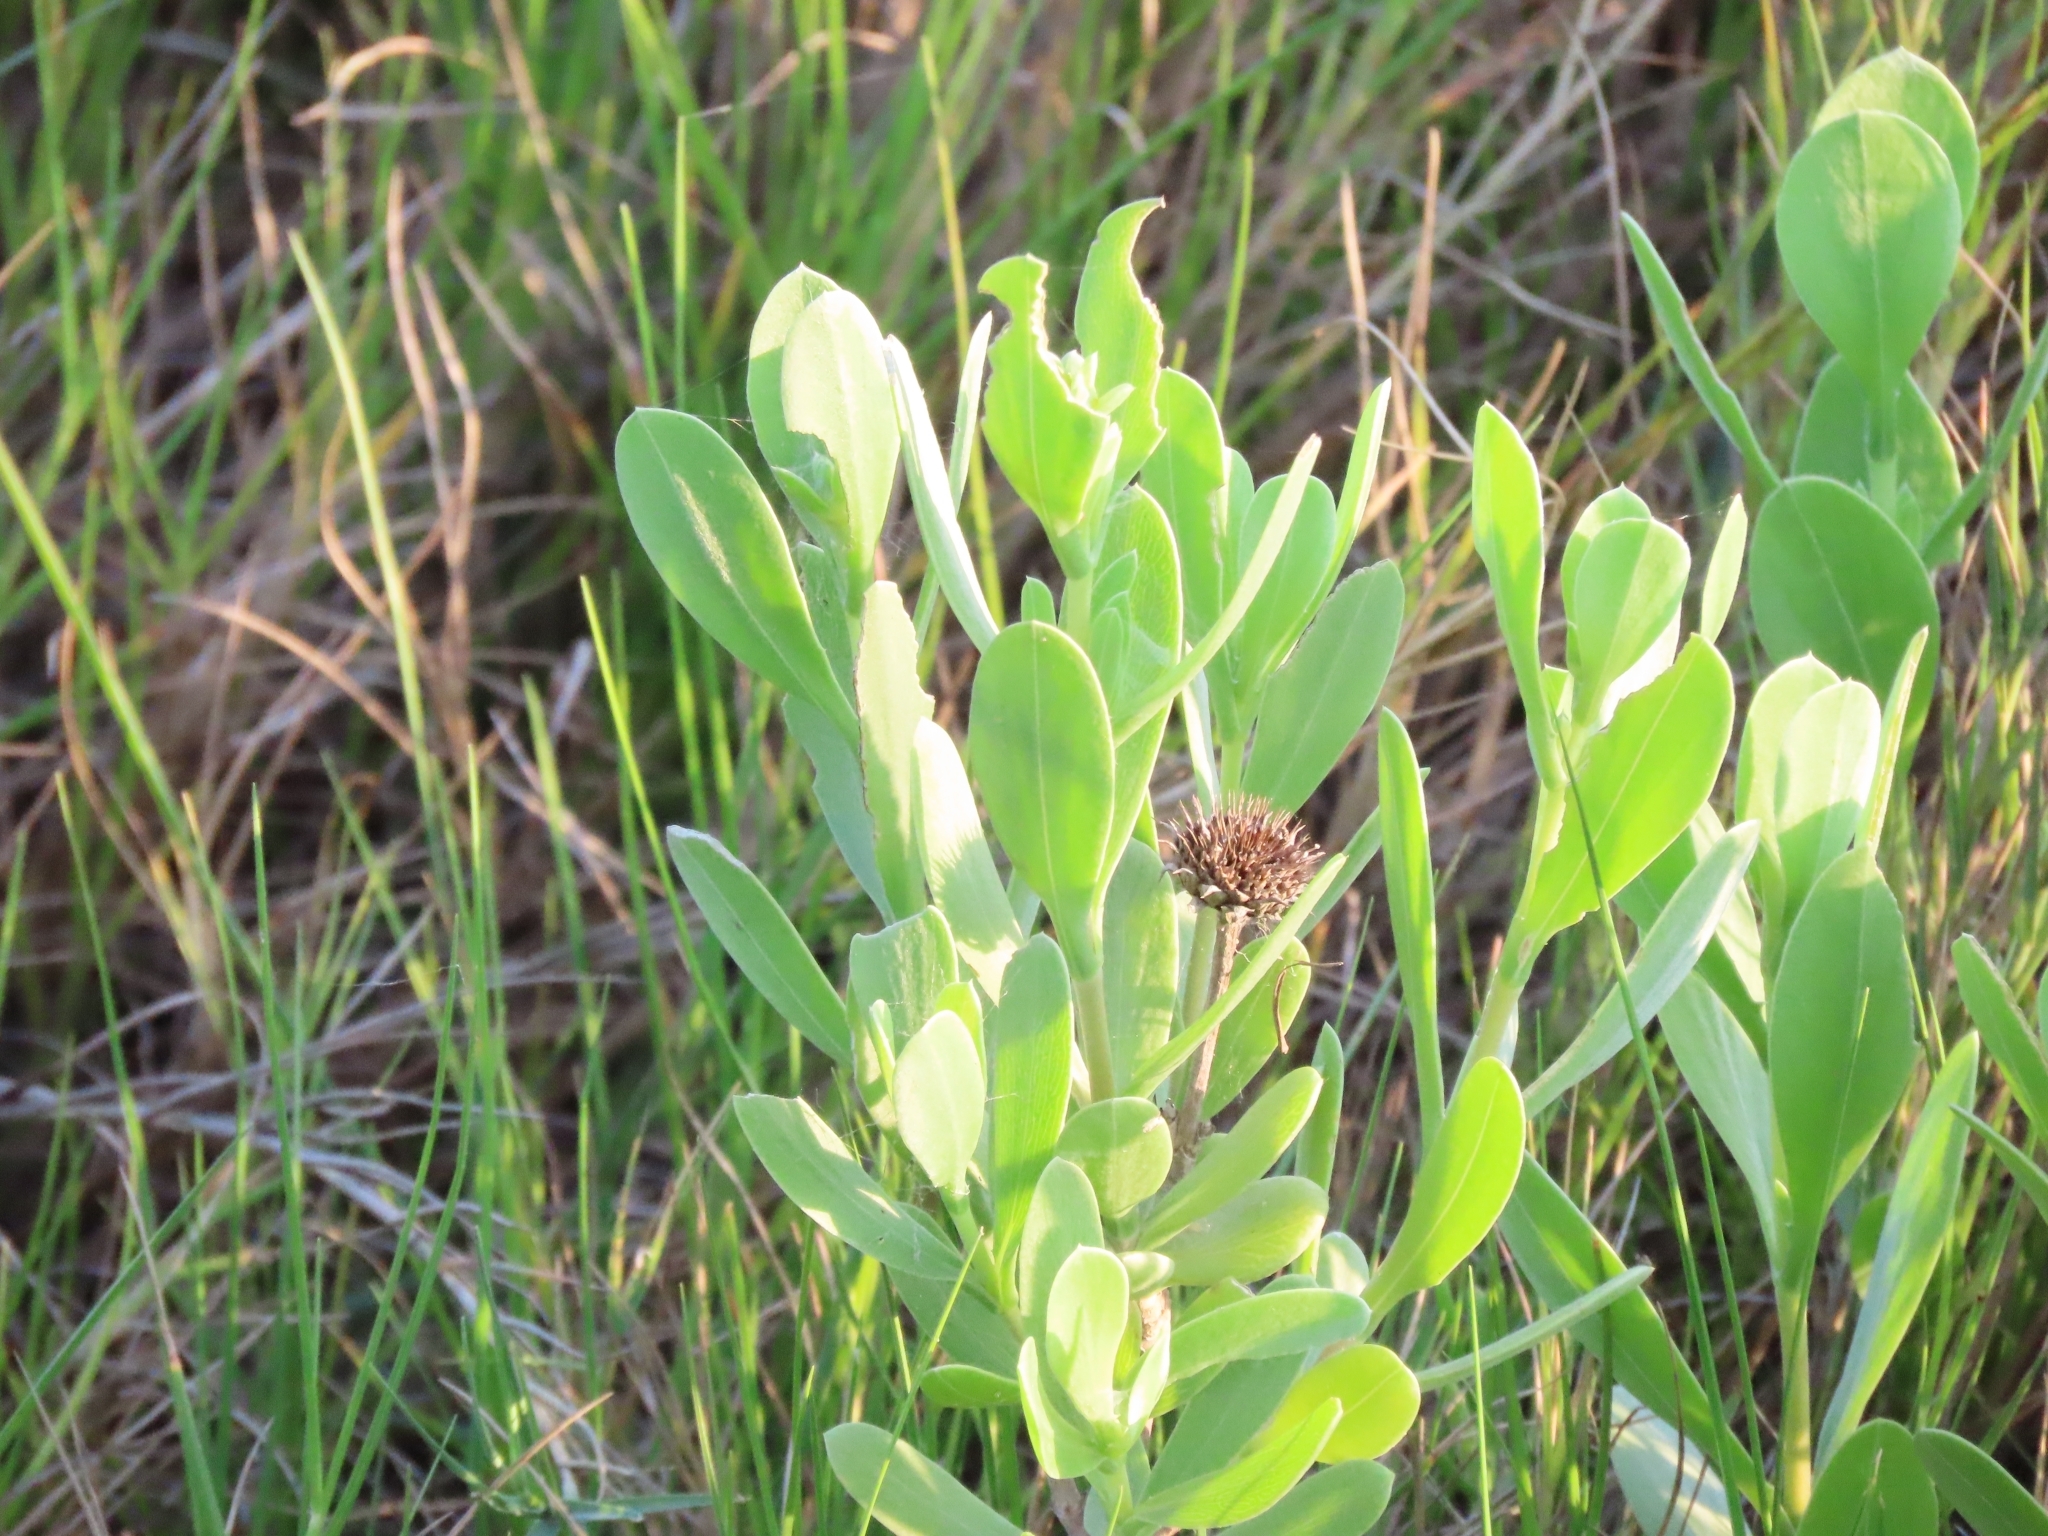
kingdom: Plantae
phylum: Tracheophyta
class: Magnoliopsida
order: Asterales
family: Asteraceae
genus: Borrichia
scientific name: Borrichia frutescens
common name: Sea oxeye
